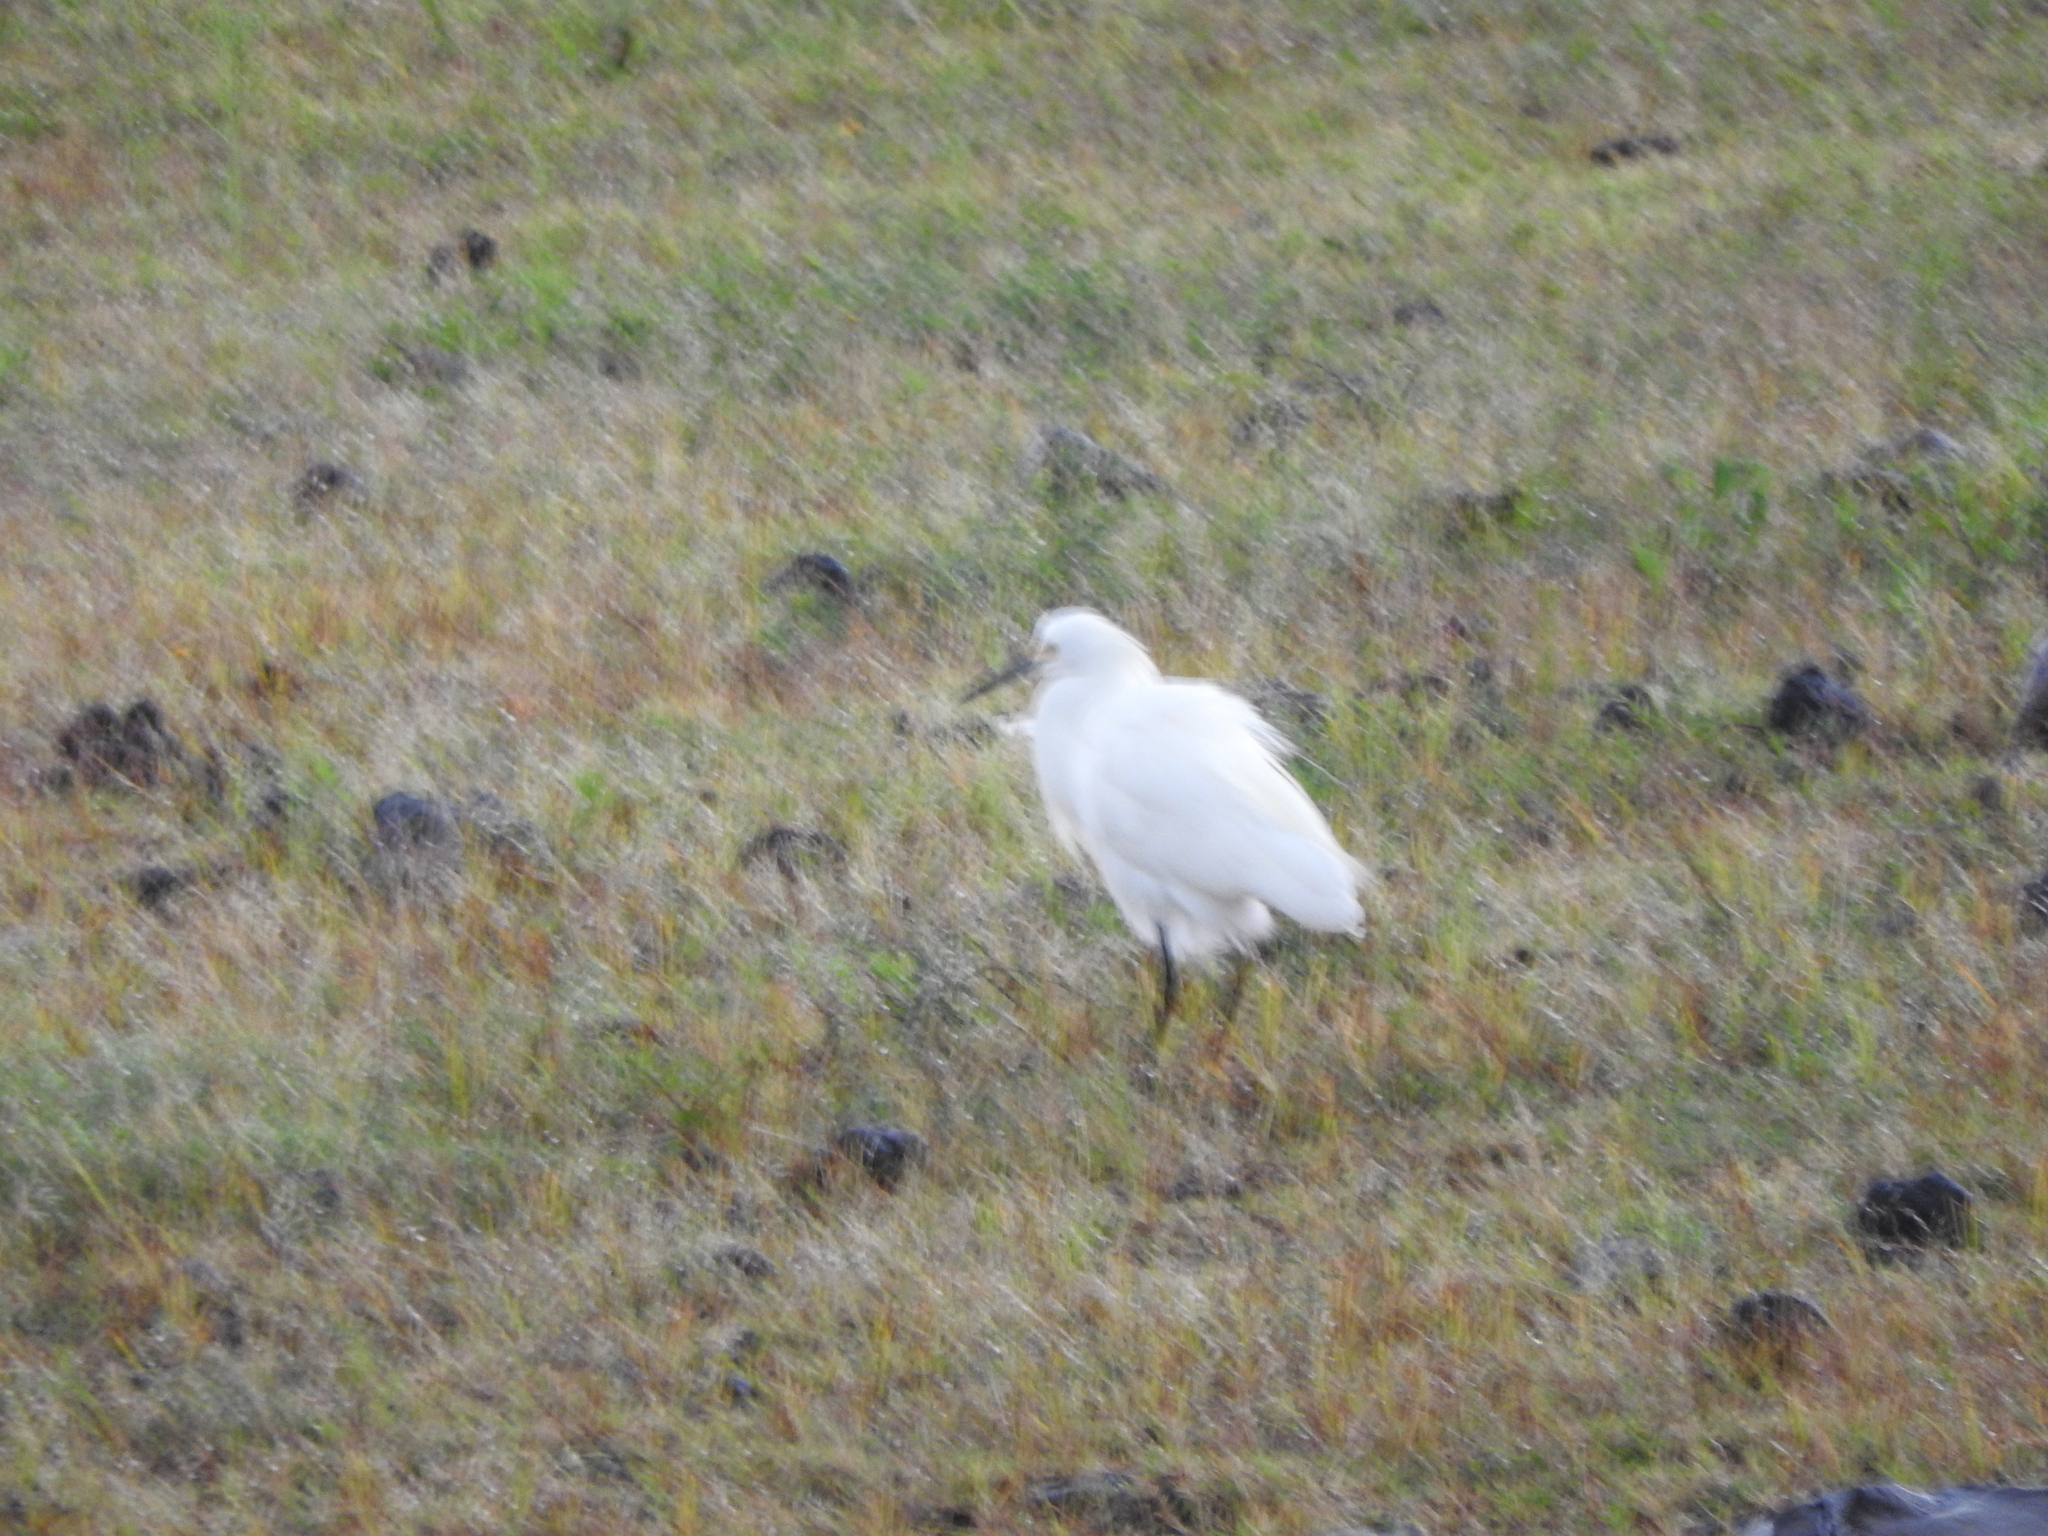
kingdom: Animalia
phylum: Chordata
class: Aves
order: Pelecaniformes
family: Ardeidae
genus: Egretta
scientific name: Egretta thula
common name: Snowy egret
